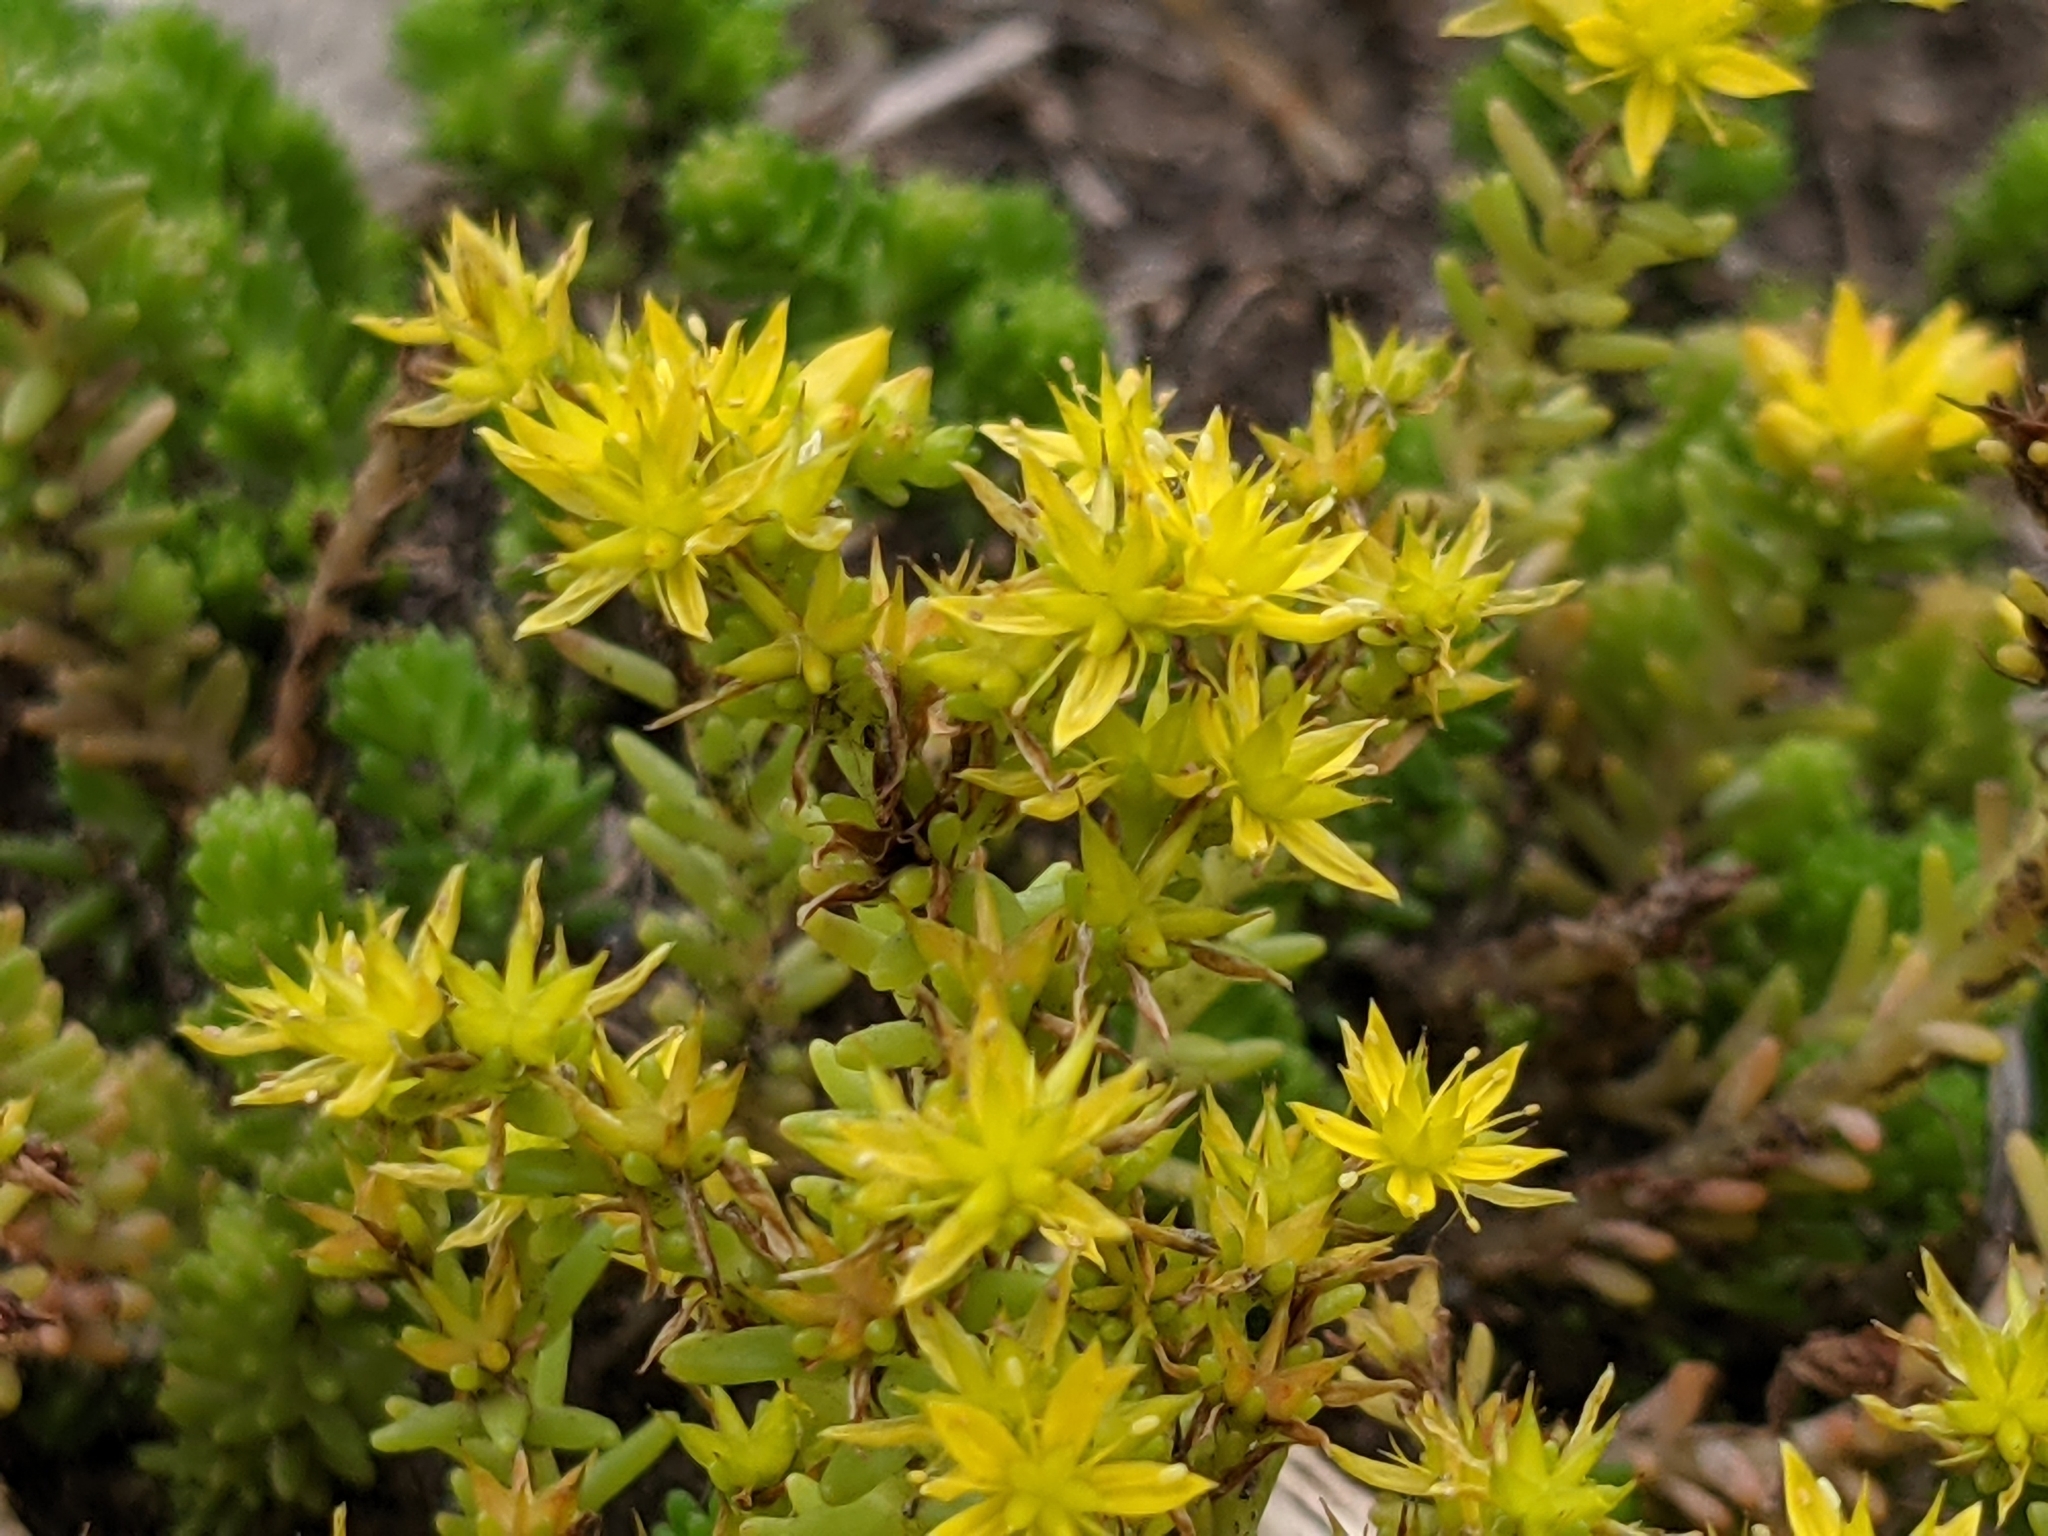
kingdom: Plantae
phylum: Tracheophyta
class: Magnoliopsida
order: Saxifragales
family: Crassulaceae
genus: Sedum
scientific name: Sedum sexangulare
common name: Tasteless stonecrop
